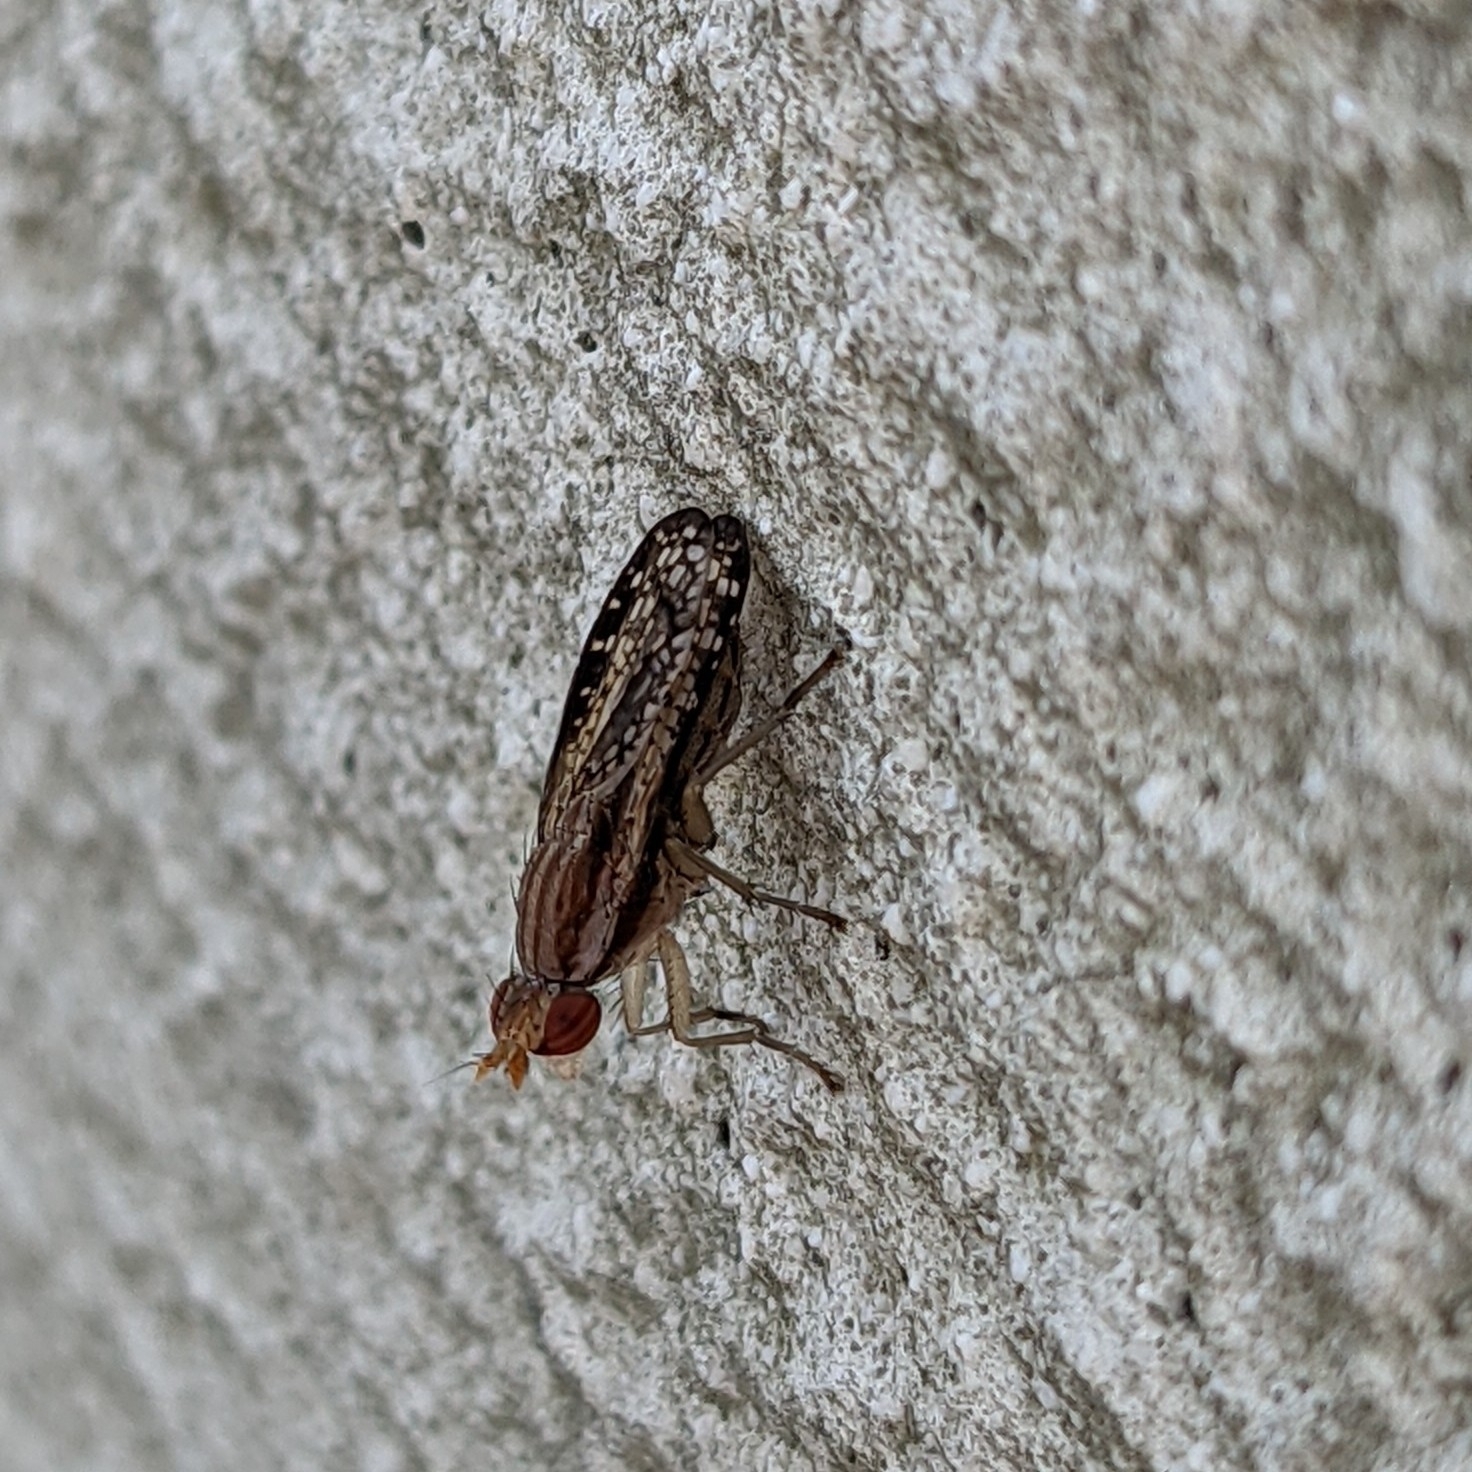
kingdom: Animalia
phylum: Arthropoda
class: Insecta
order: Diptera
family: Sciomyzidae
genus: Trypetoptera
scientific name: Trypetoptera canadensis
